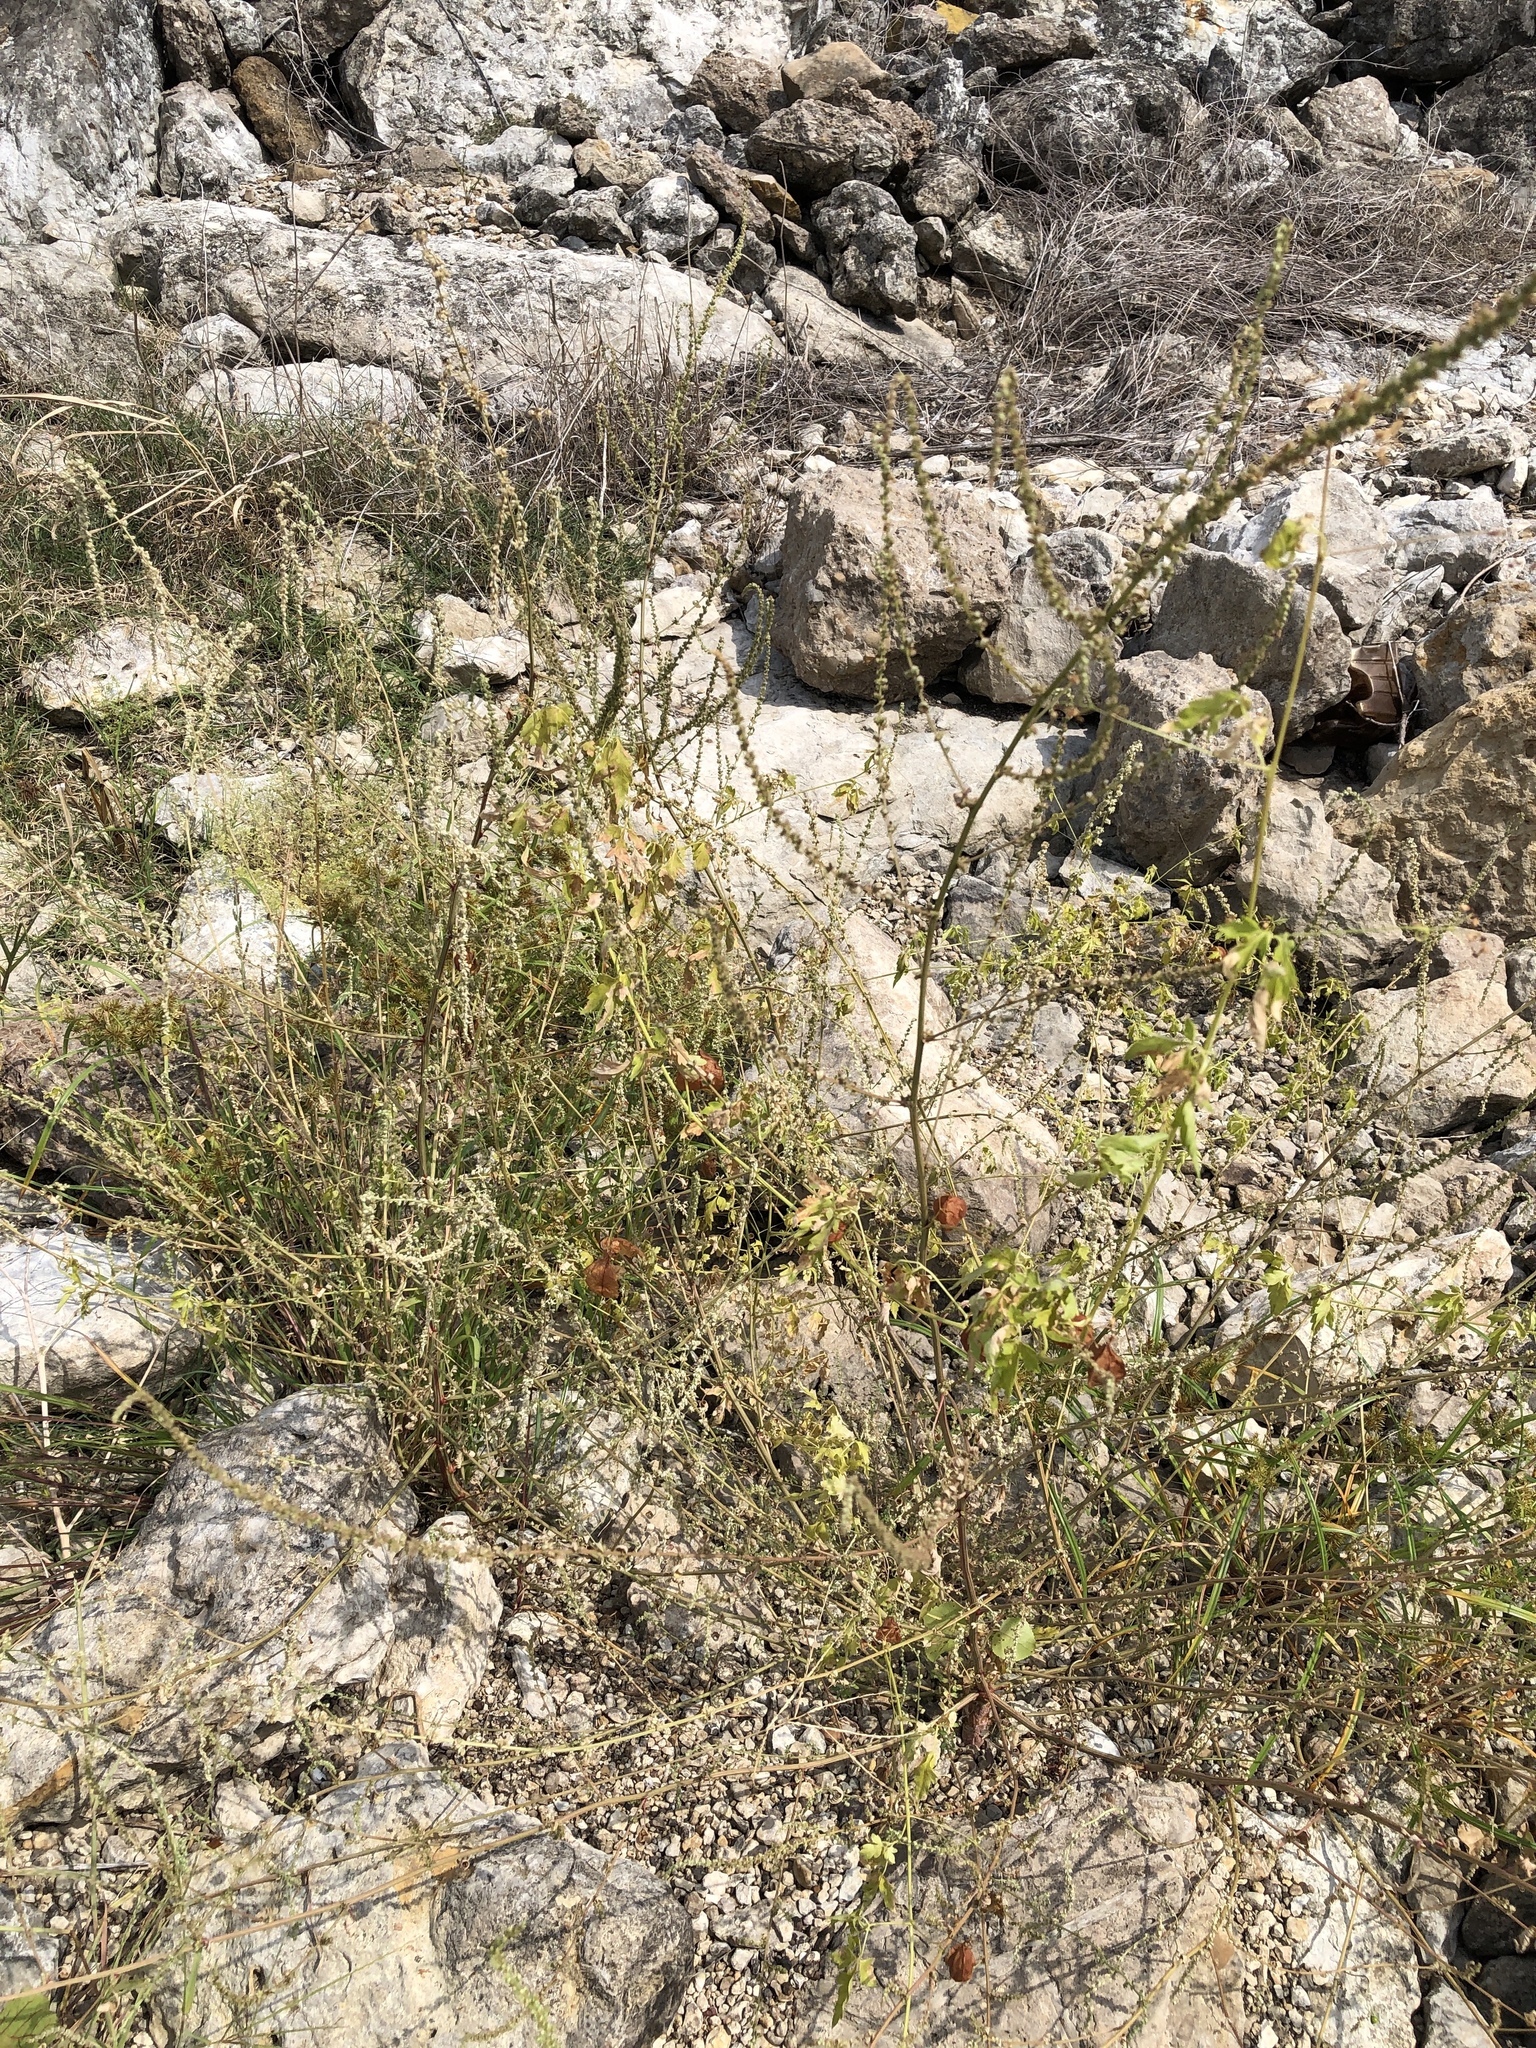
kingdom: Plantae
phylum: Tracheophyta
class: Magnoliopsida
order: Sapindales
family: Sapindaceae
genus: Cardiospermum
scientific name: Cardiospermum halicacabum
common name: Balloon vine
